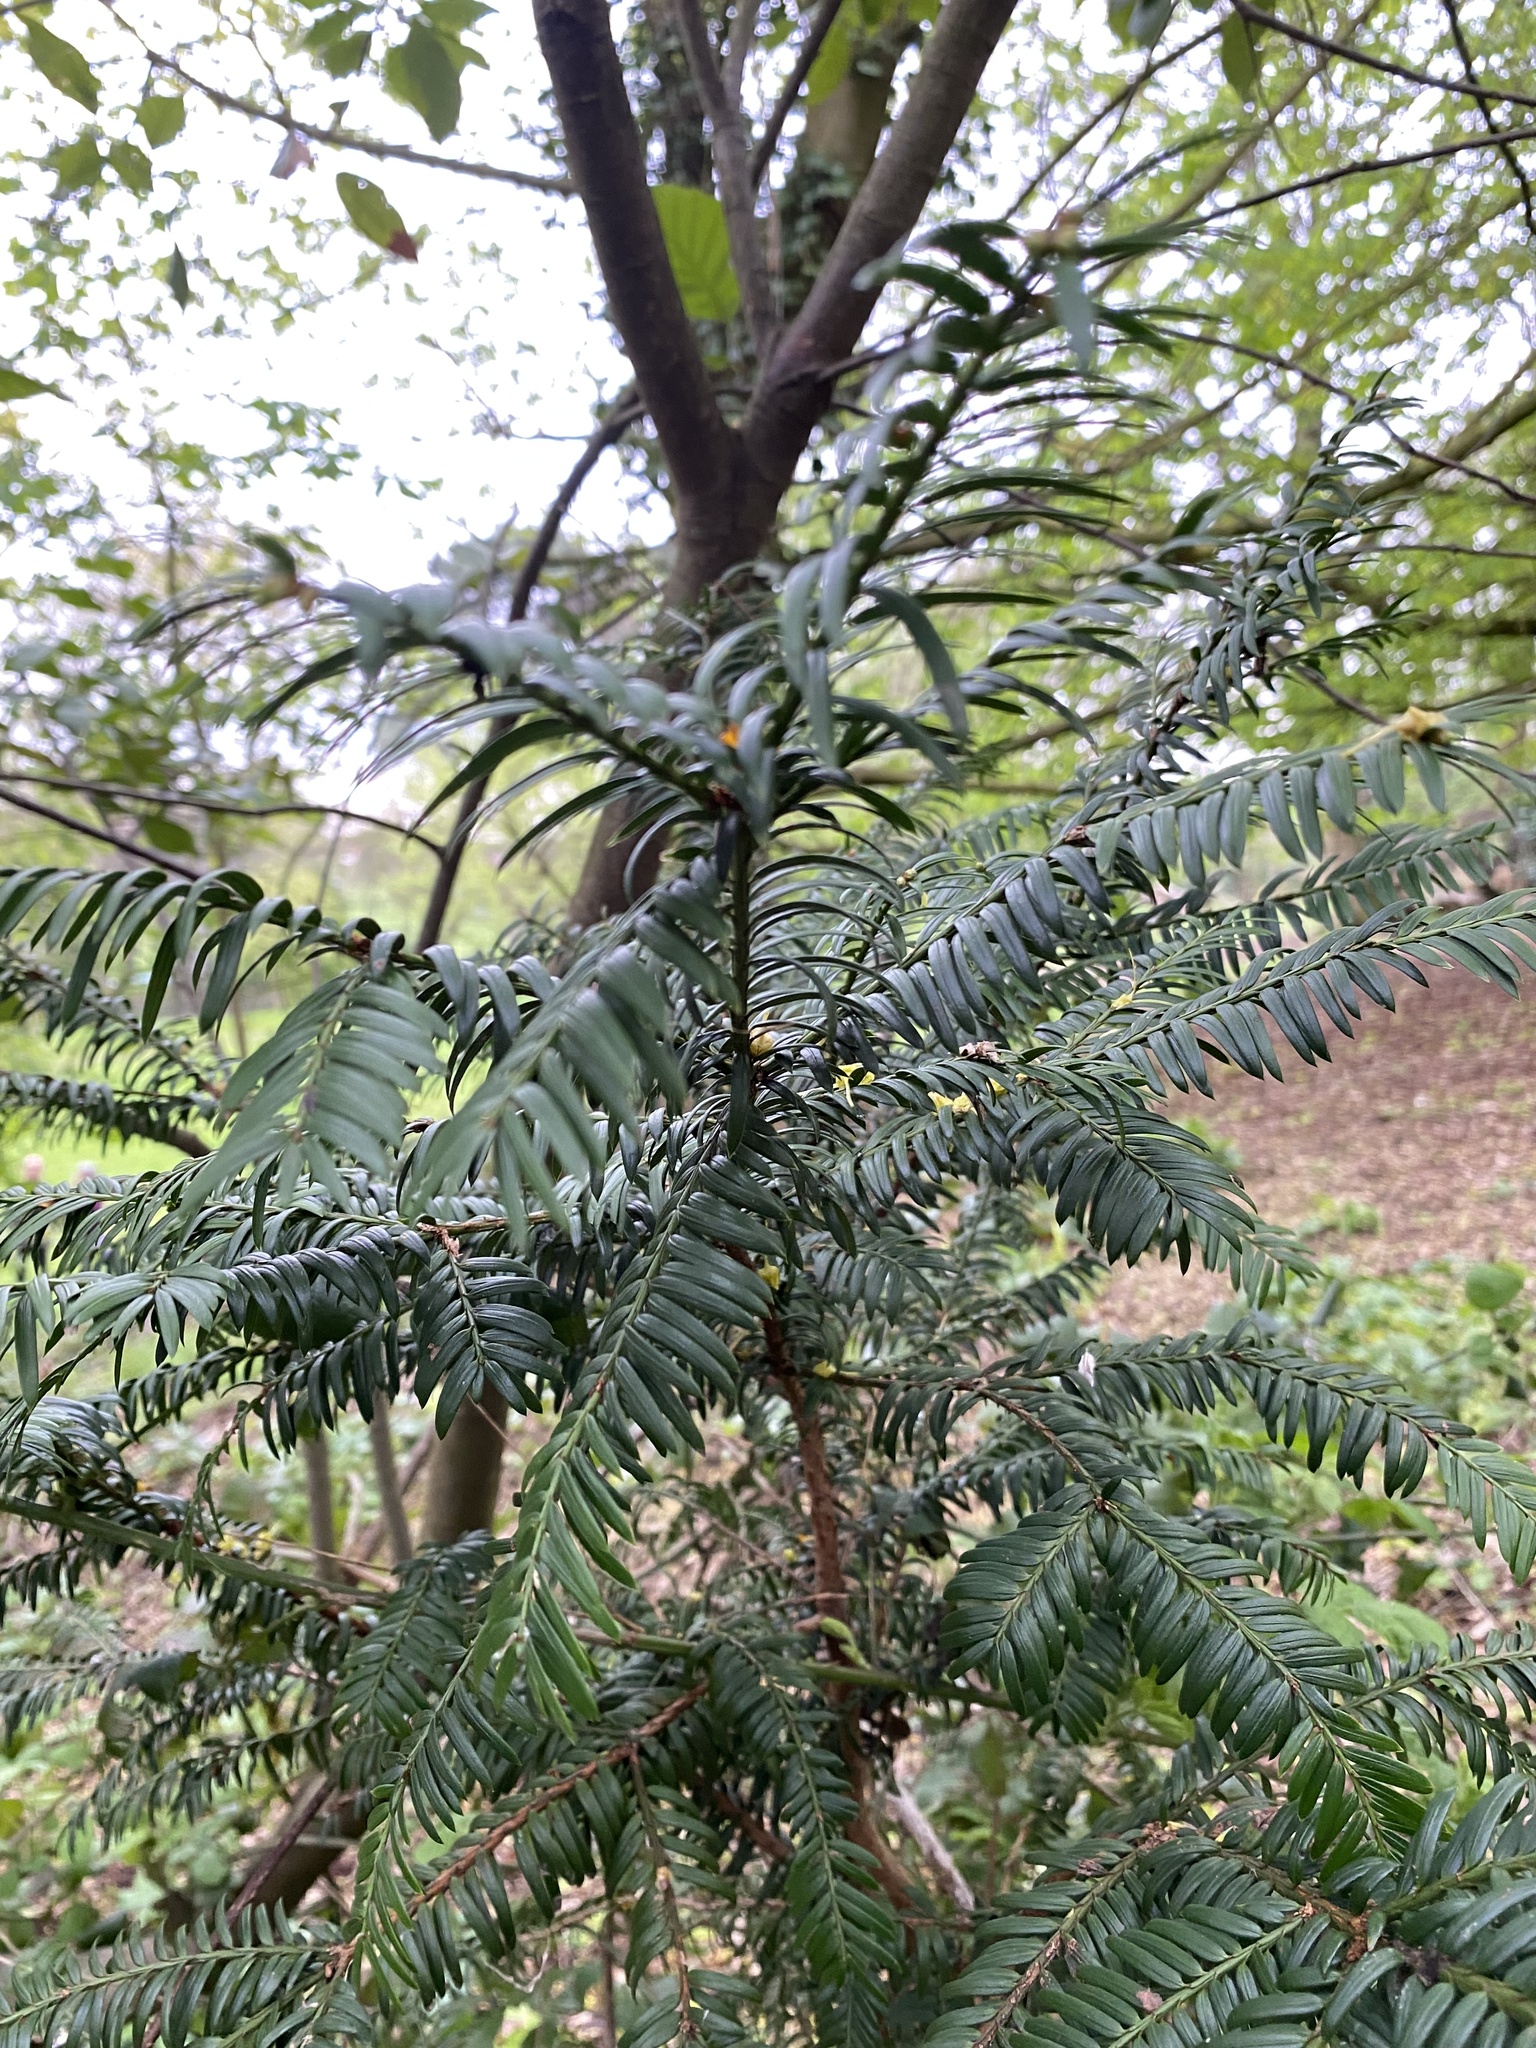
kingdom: Plantae
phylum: Tracheophyta
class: Pinopsida
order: Pinales
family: Taxaceae
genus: Taxus
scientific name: Taxus baccata
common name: Yew
